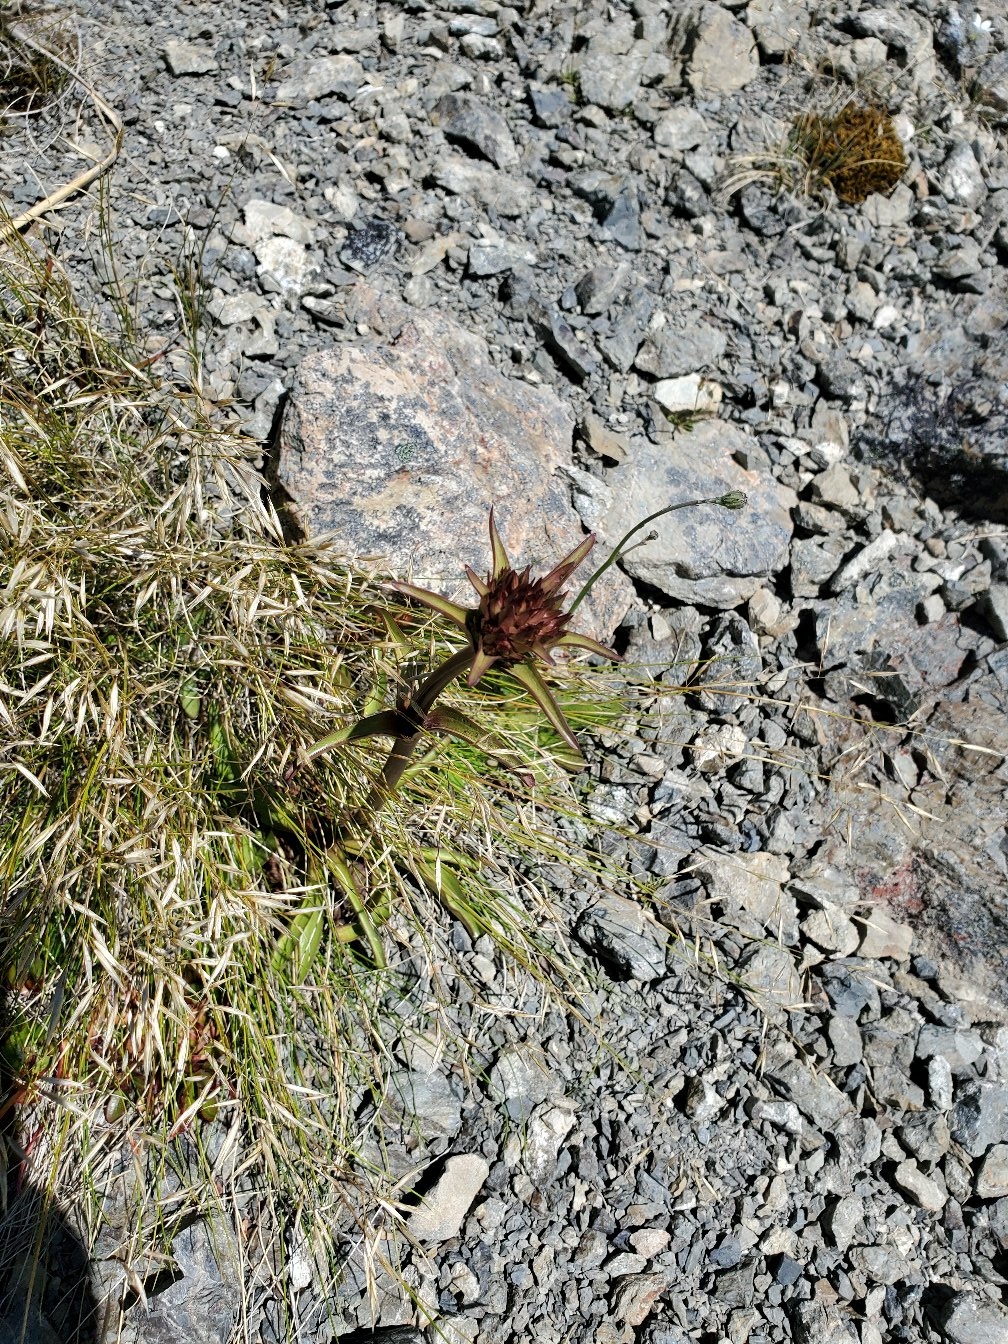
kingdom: Plantae
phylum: Tracheophyta
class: Magnoliopsida
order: Gentianales
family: Gentianaceae
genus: Gentianella
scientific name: Gentianella corymbifera
